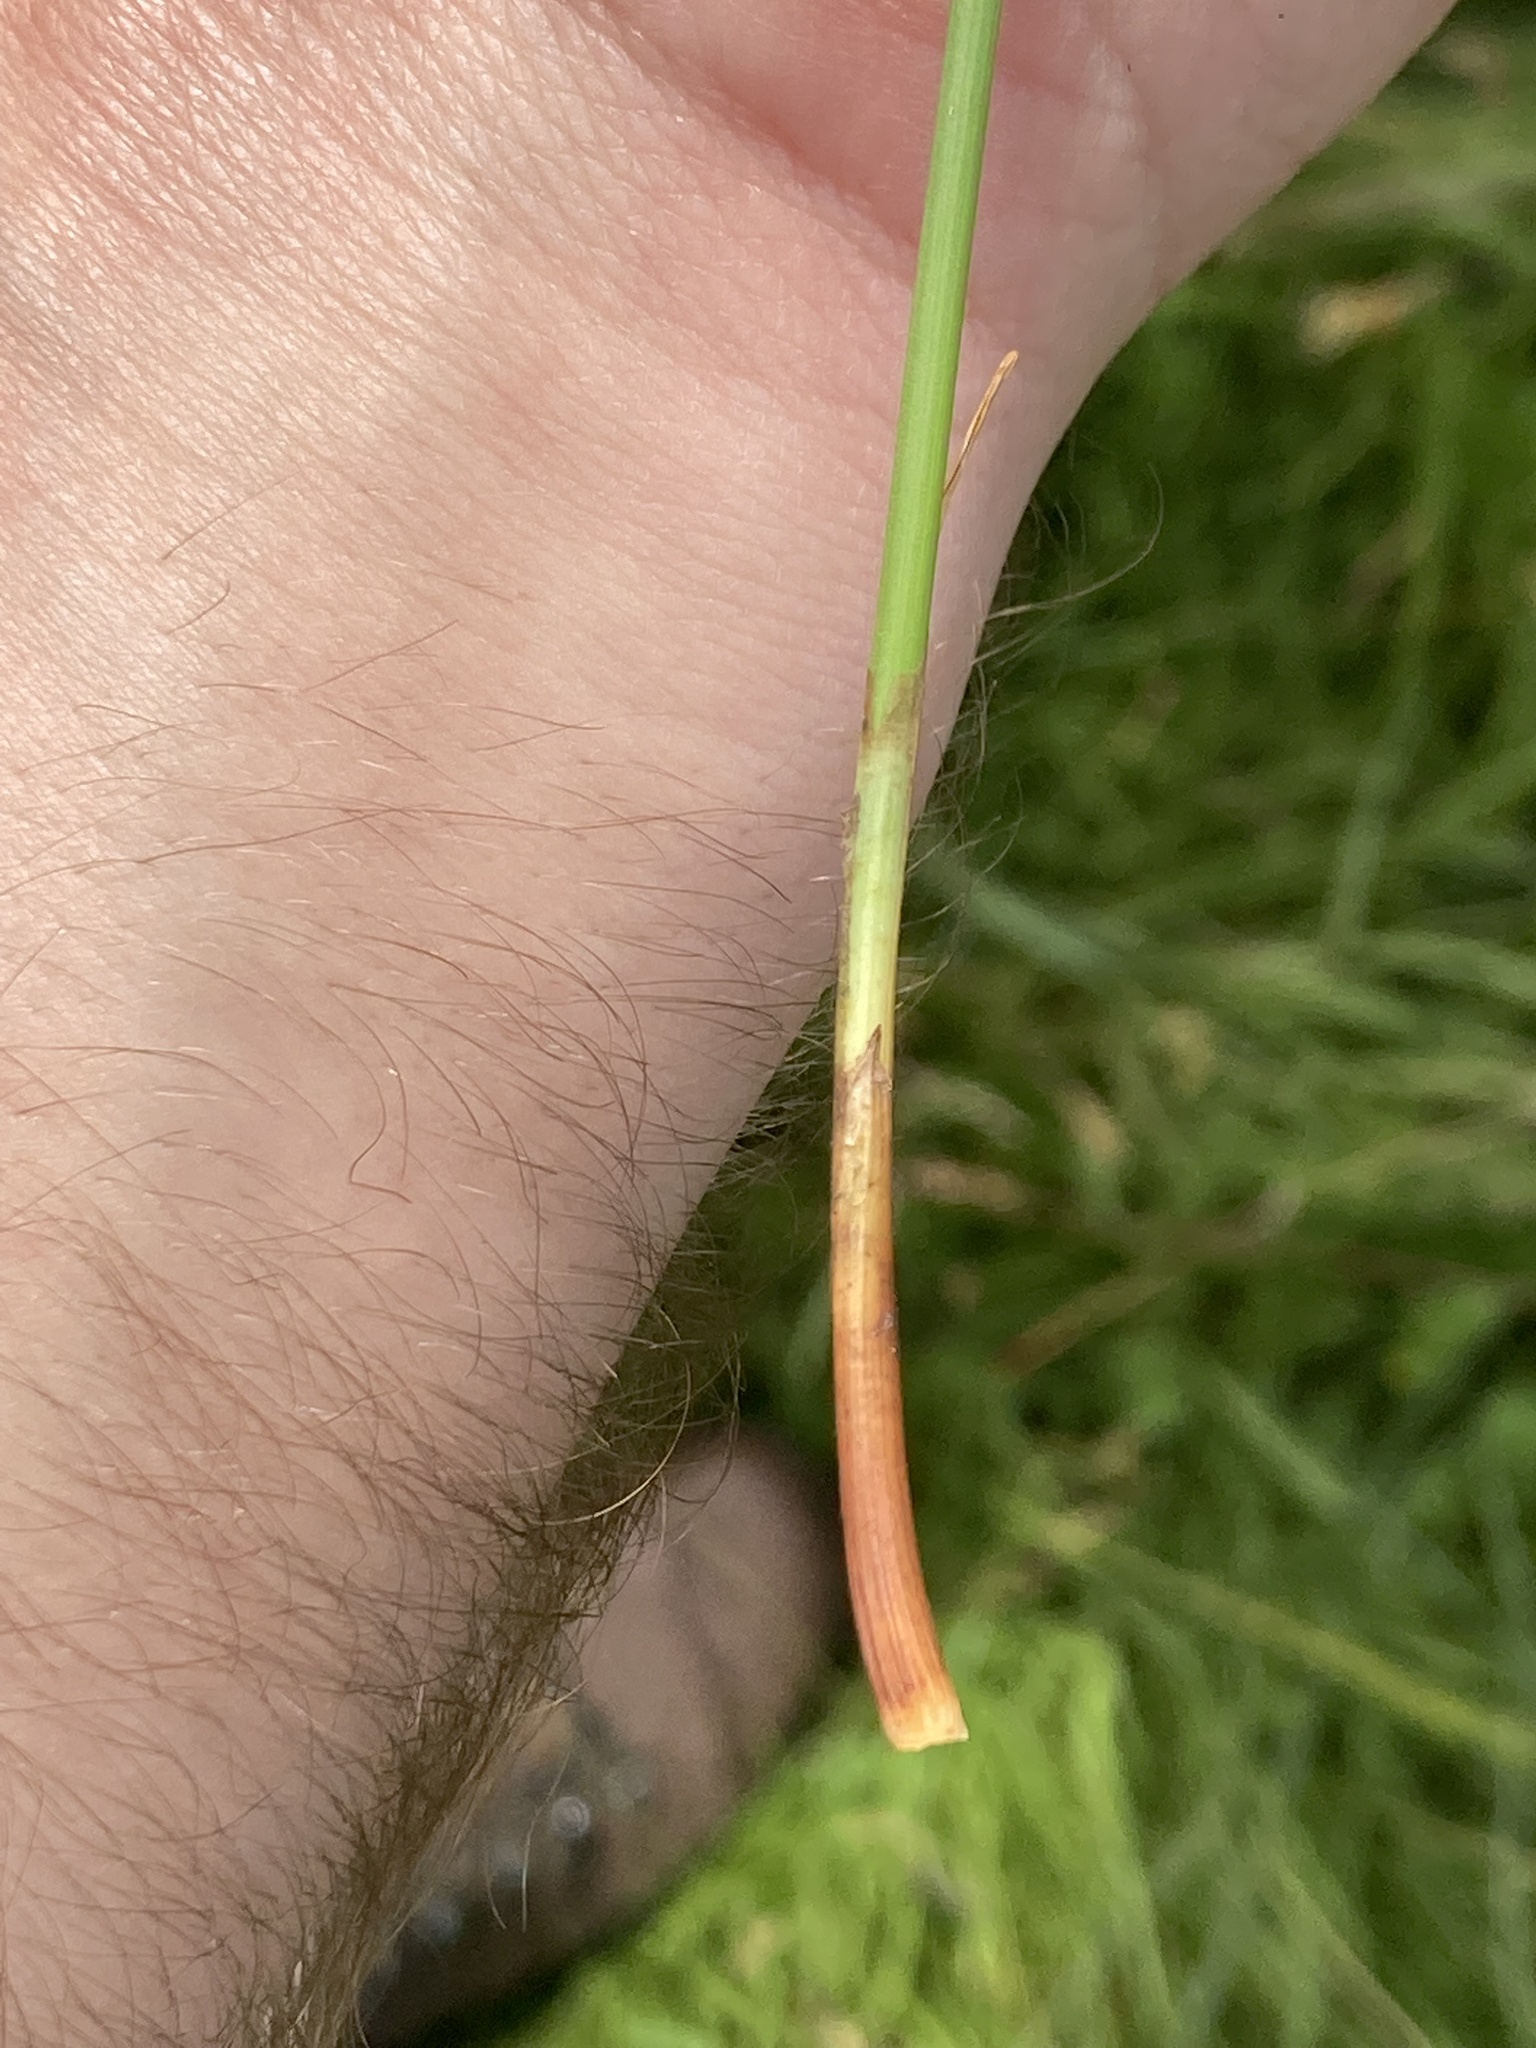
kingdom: Plantae
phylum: Tracheophyta
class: Liliopsida
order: Poales
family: Cyperaceae
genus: Carex
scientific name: Carex extensa
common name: Long-bracted sedge
